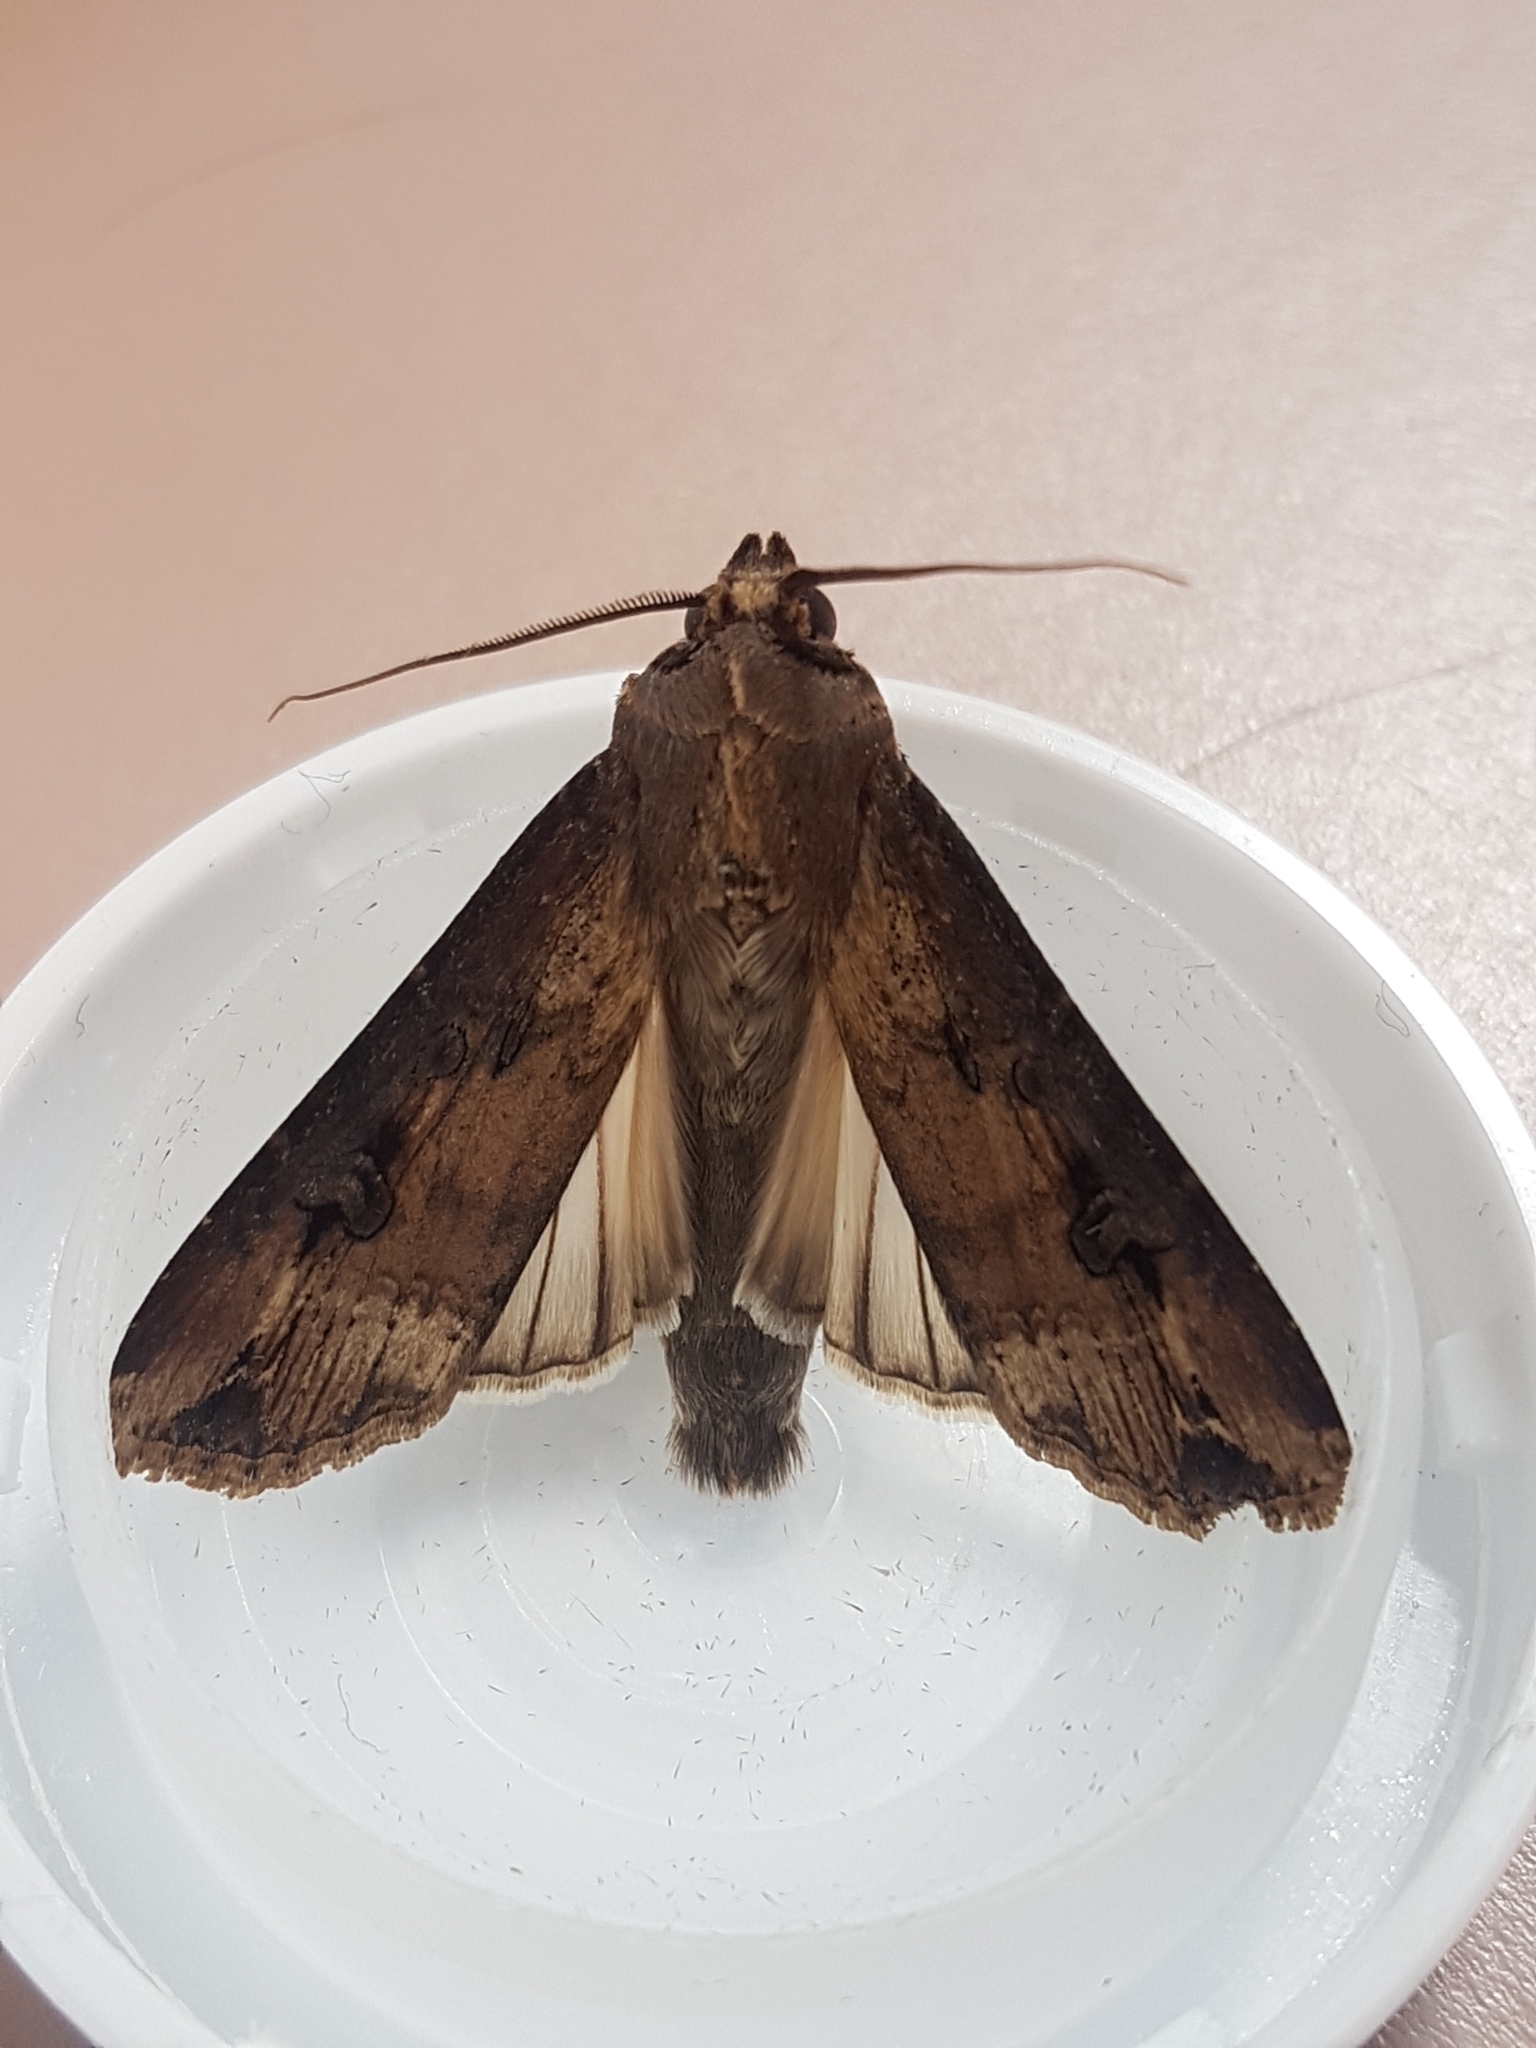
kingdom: Animalia
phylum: Arthropoda
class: Insecta
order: Lepidoptera
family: Noctuidae
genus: Agrotis
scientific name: Agrotis ipsilon
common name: Dark sword-grass
